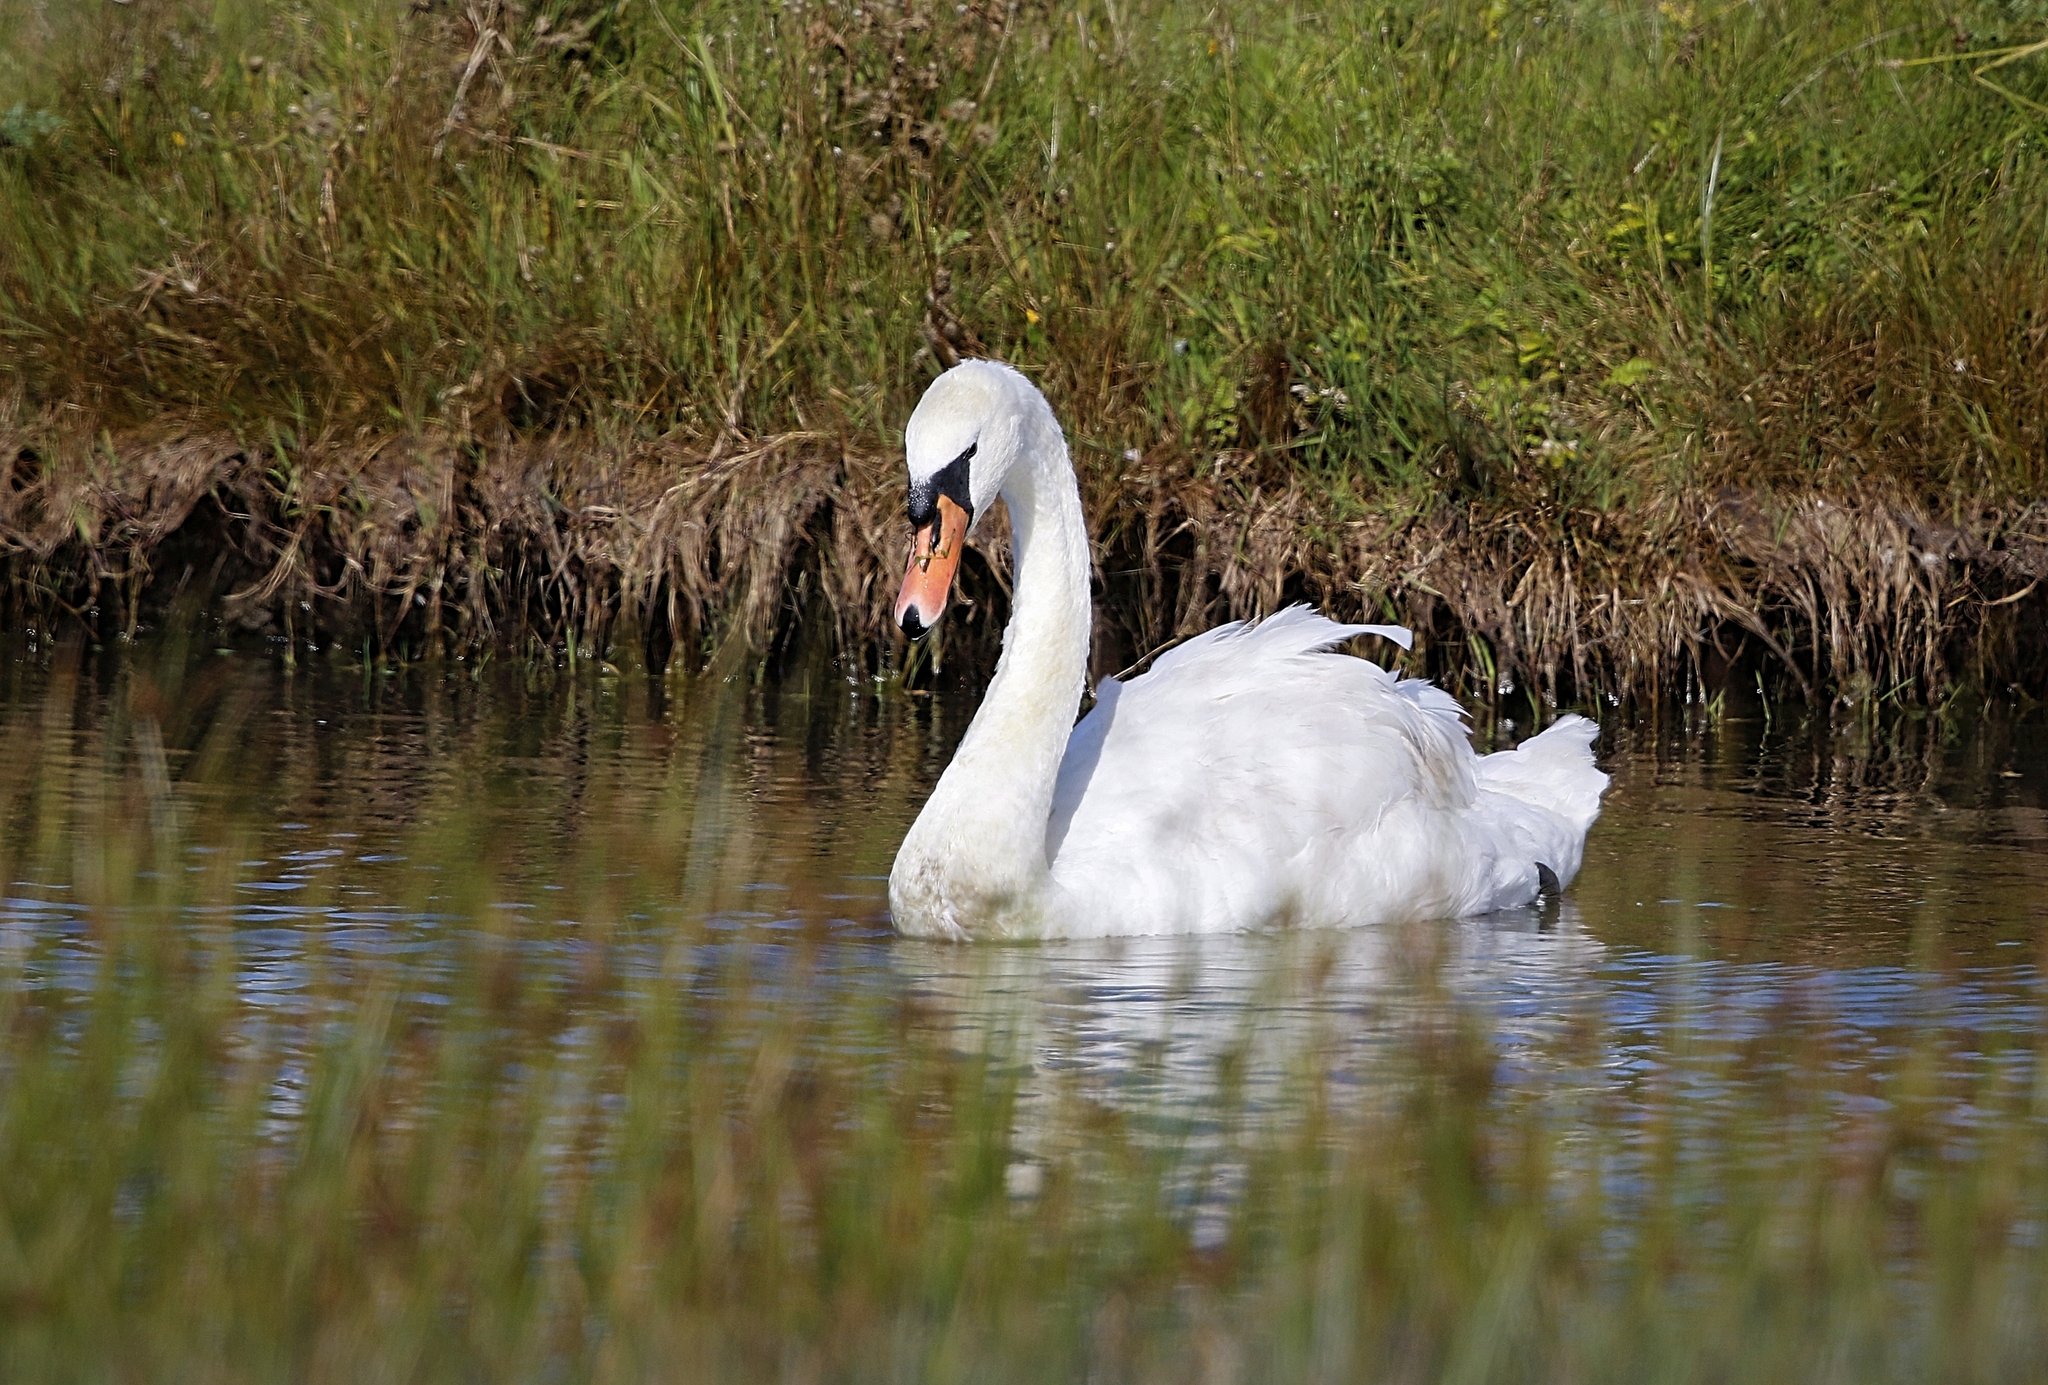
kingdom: Animalia
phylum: Chordata
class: Aves
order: Anseriformes
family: Anatidae
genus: Cygnus
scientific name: Cygnus olor
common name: Mute swan
